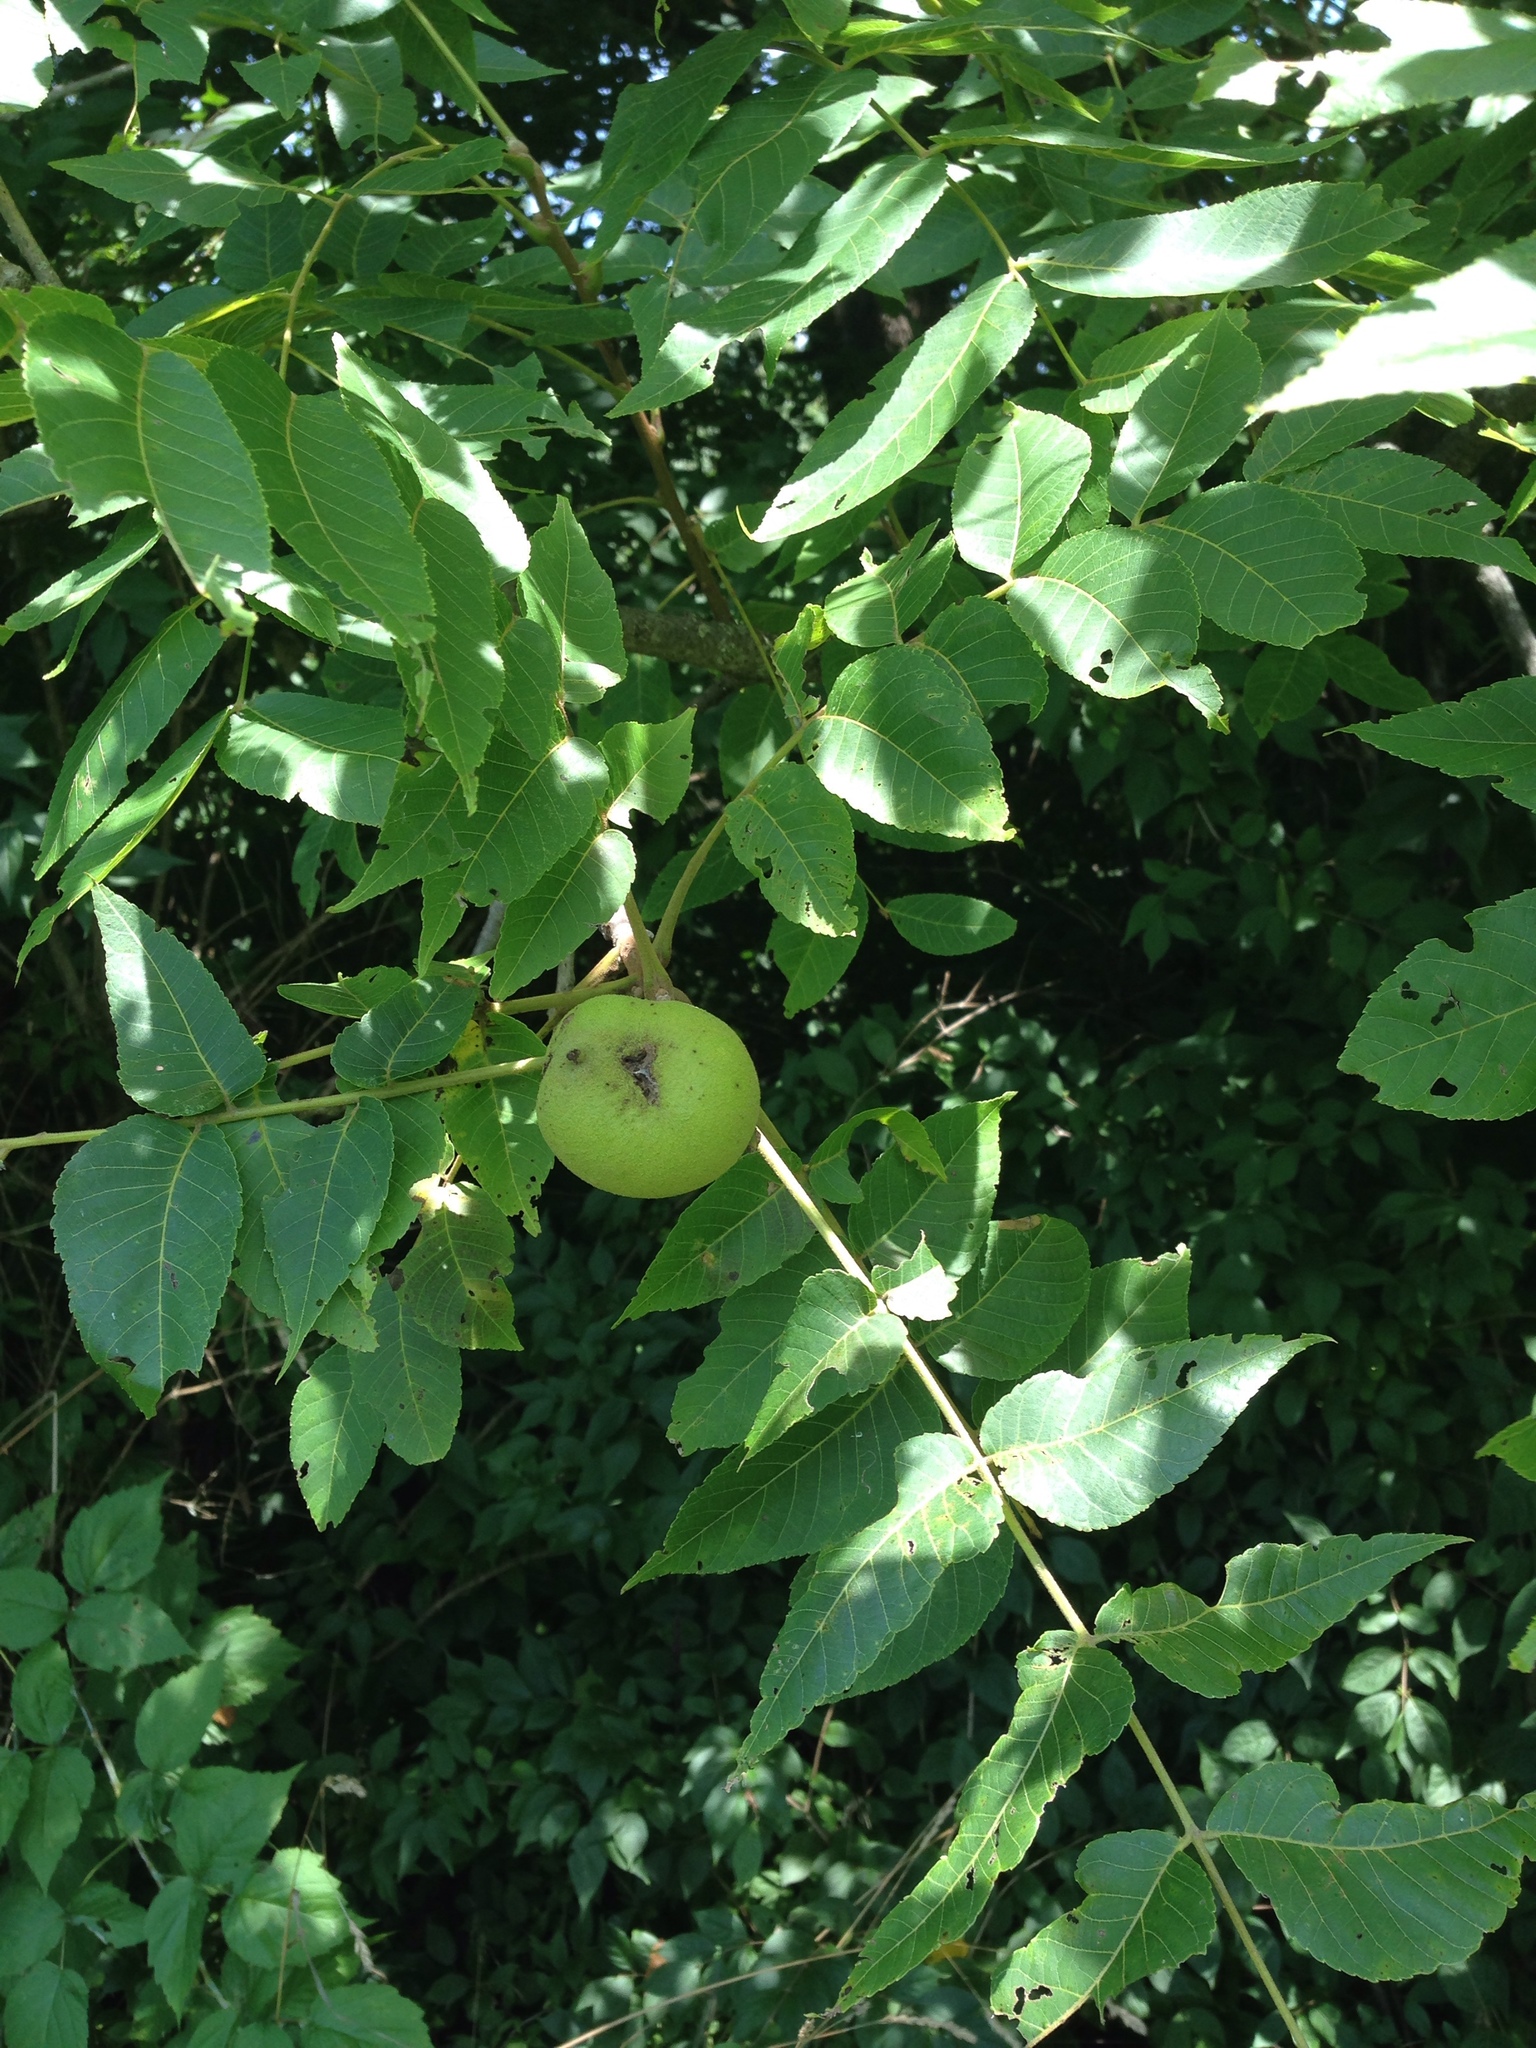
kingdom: Plantae
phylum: Tracheophyta
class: Magnoliopsida
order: Fagales
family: Juglandaceae
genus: Juglans
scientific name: Juglans nigra
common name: Black walnut
